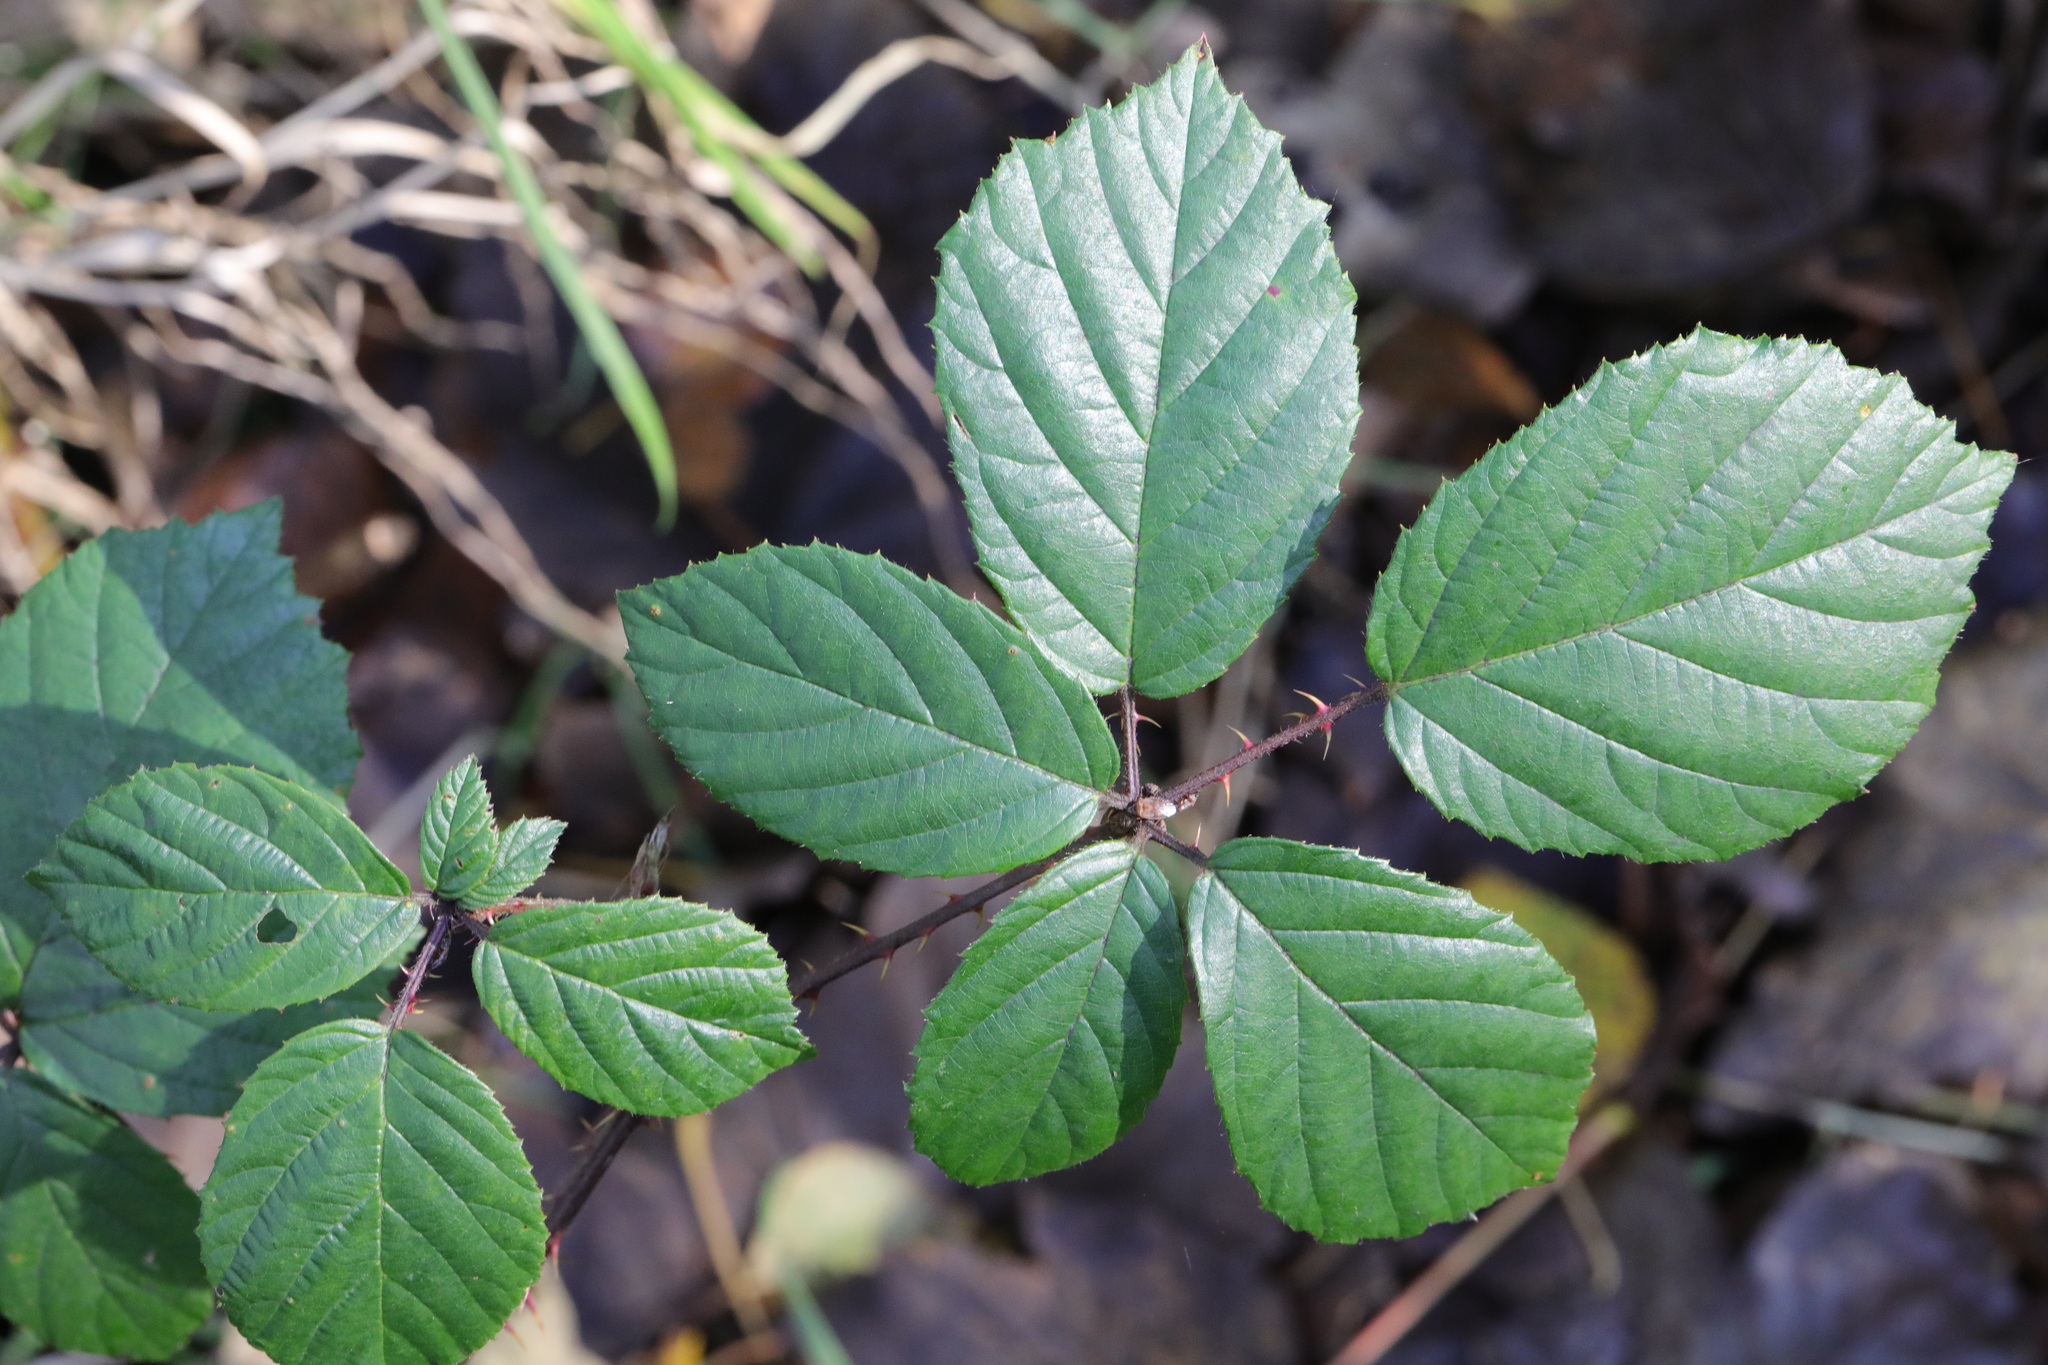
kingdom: Plantae
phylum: Tracheophyta
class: Magnoliopsida
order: Rosales
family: Rosaceae
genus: Rubus
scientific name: Rubus calvatus
